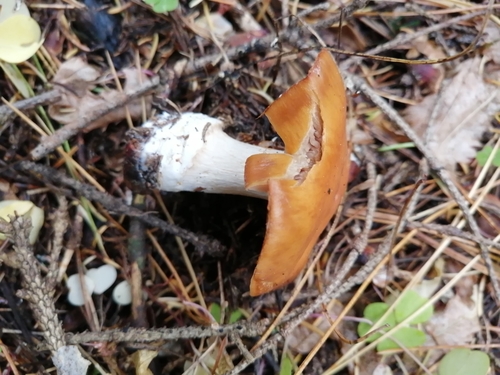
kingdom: Fungi
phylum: Basidiomycota
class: Agaricomycetes
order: Agaricales
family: Cortinariaceae
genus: Thaxterogaster
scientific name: Thaxterogaster talus
